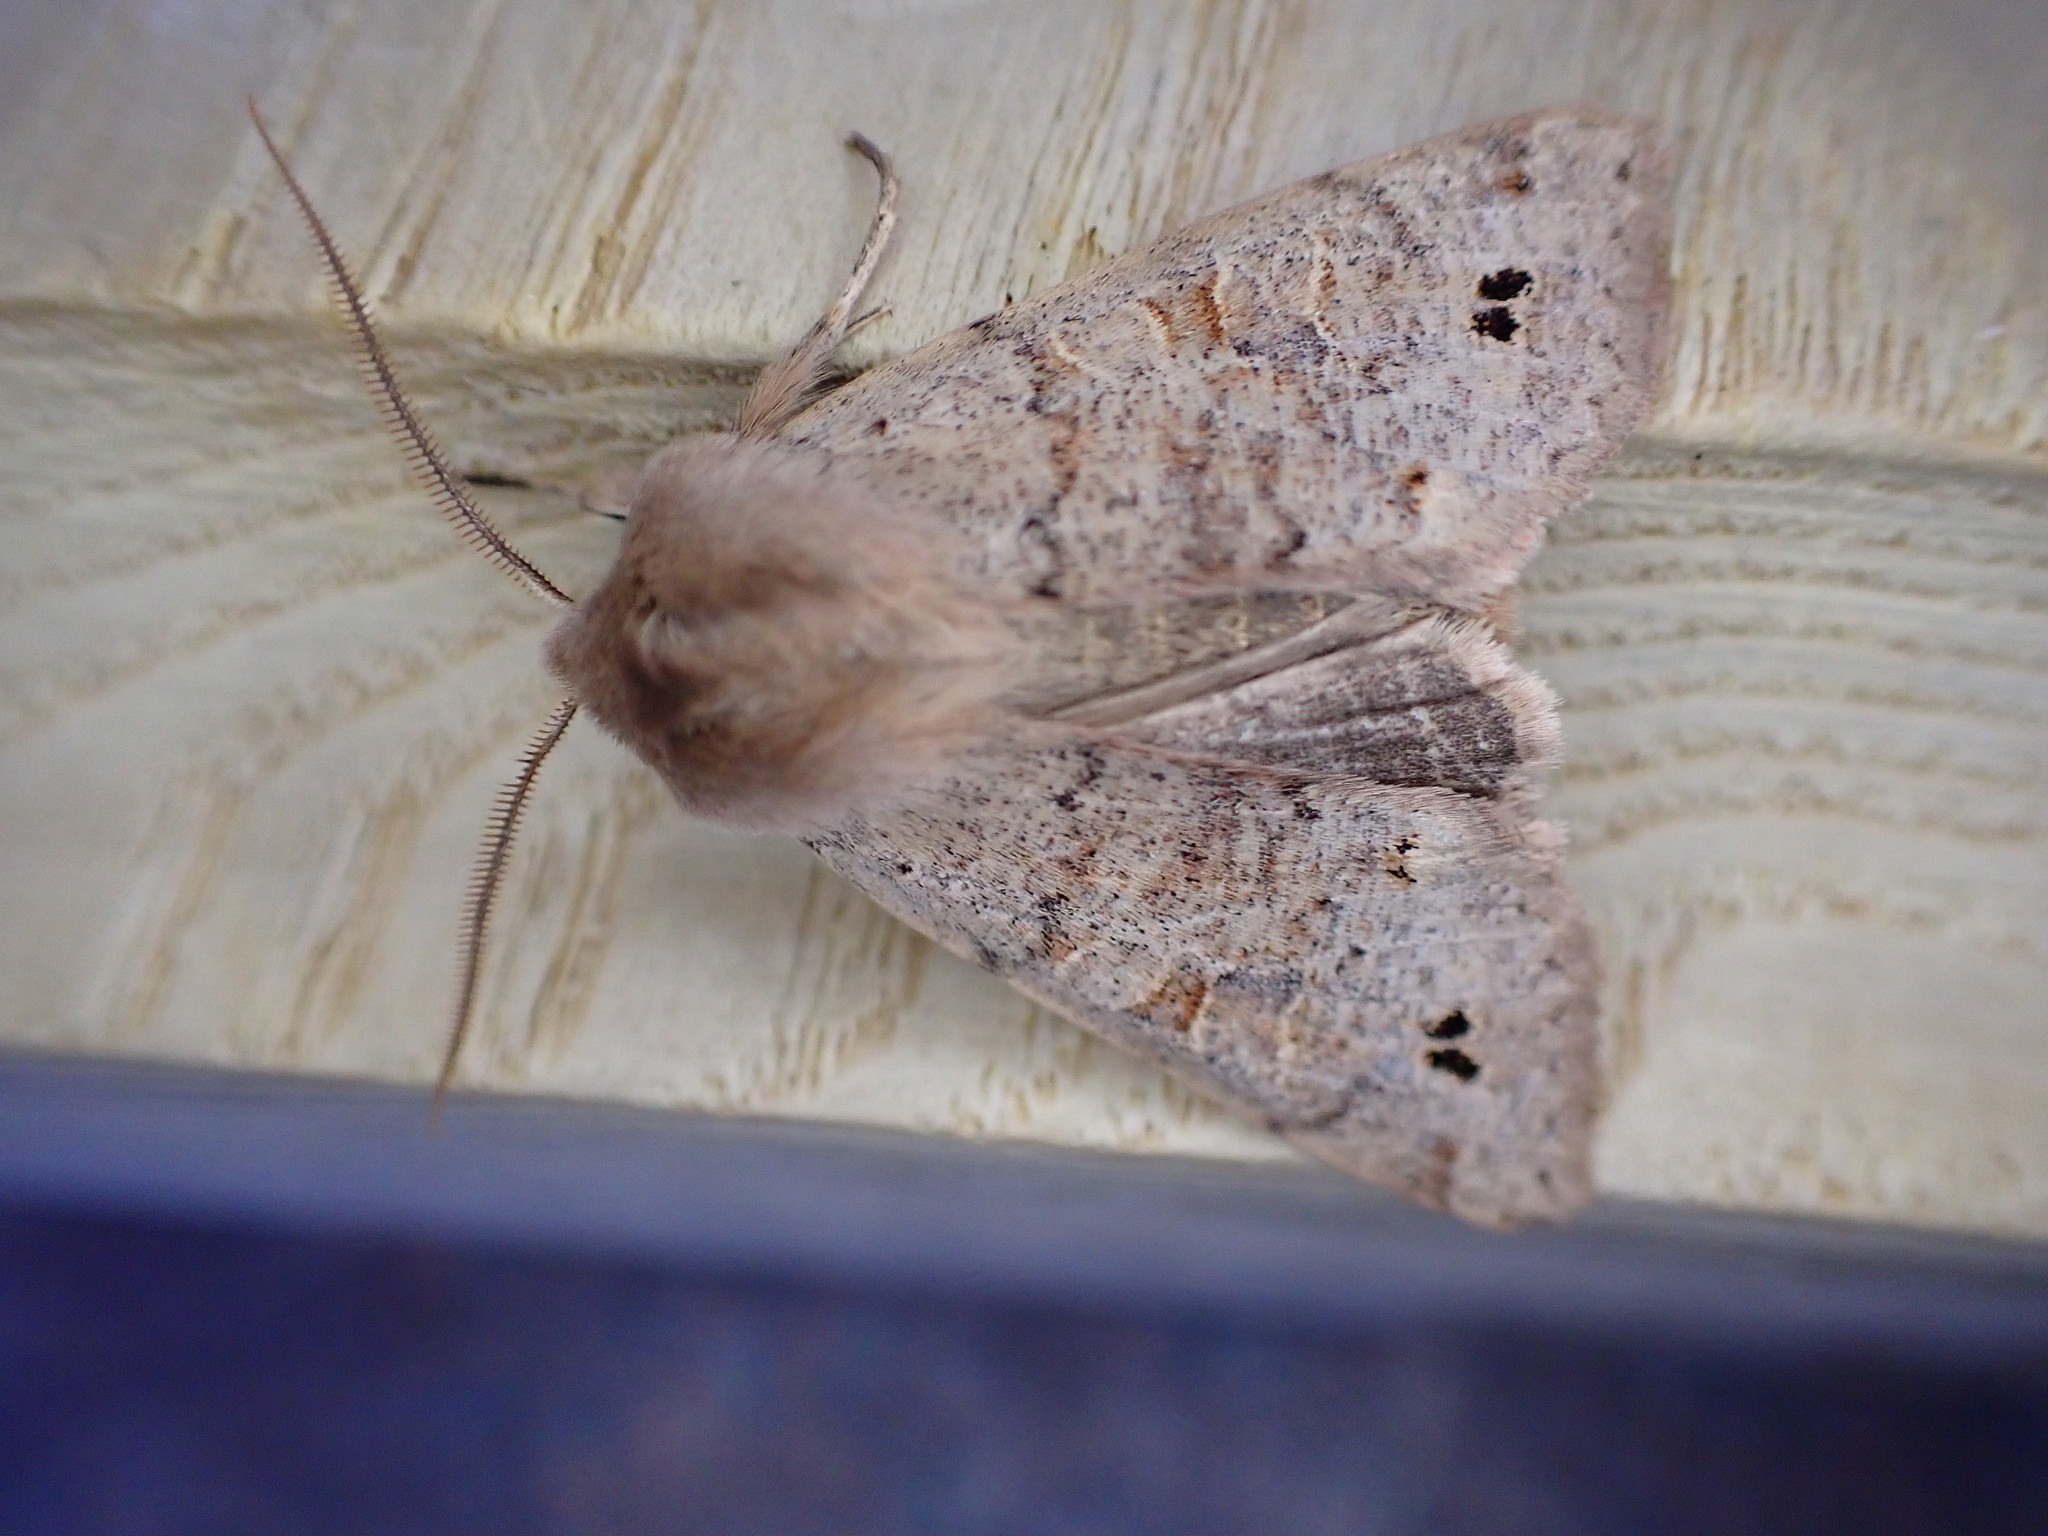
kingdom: Animalia
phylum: Arthropoda
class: Insecta
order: Lepidoptera
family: Noctuidae
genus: Anorthoa
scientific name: Anorthoa munda
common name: Twin-spotted quaker
